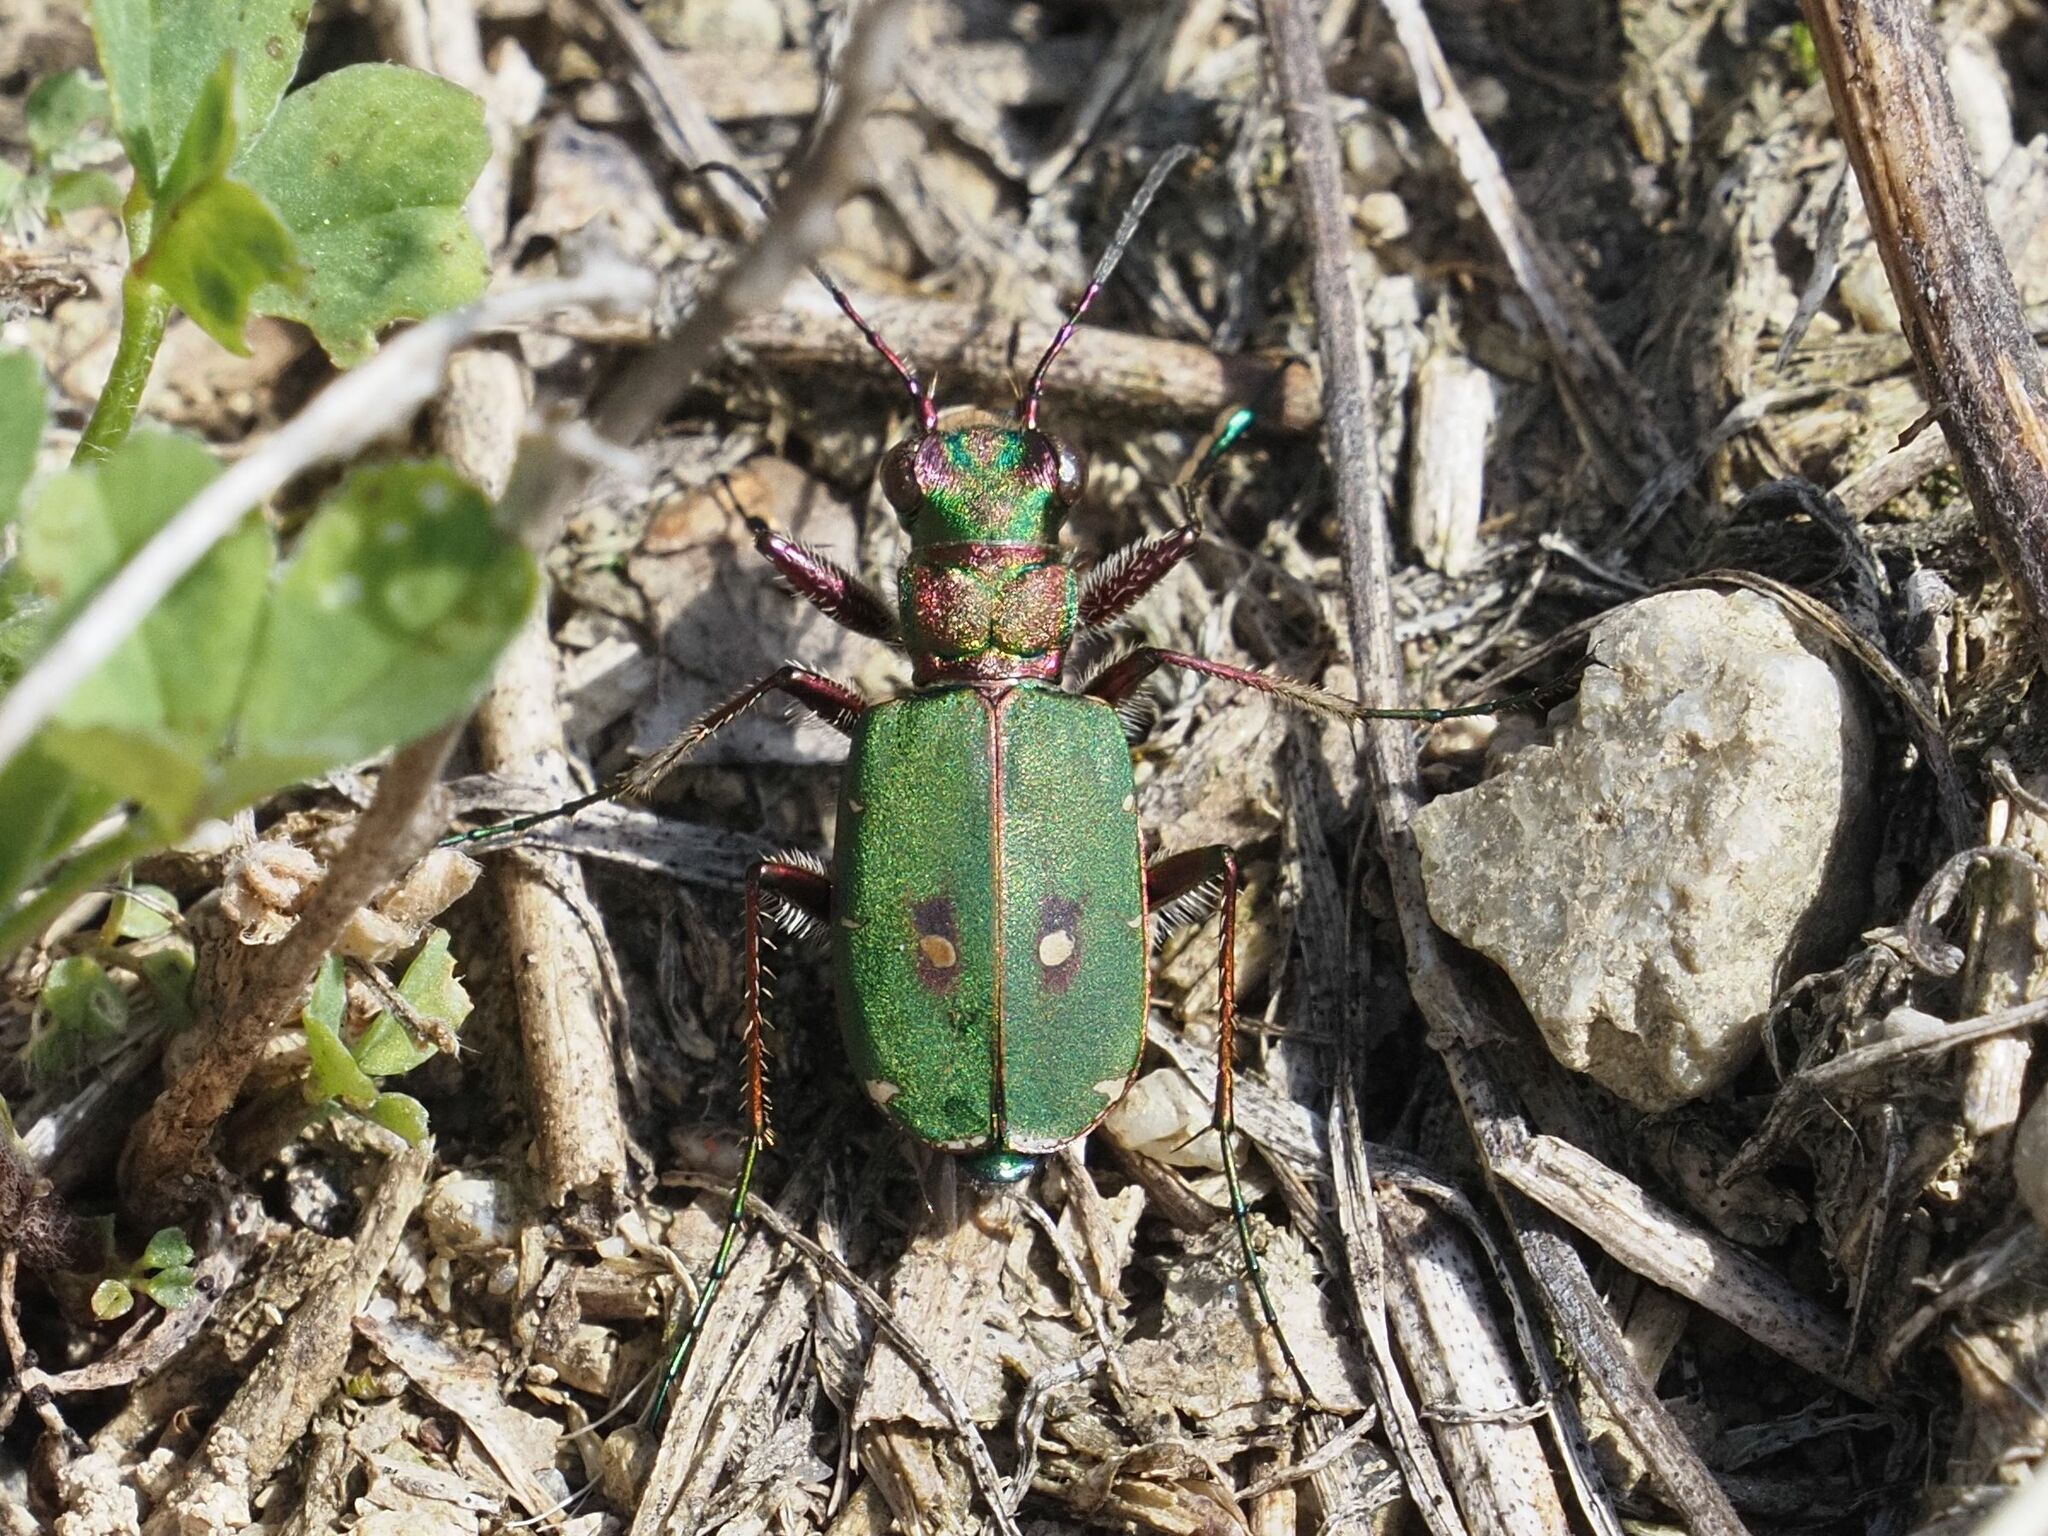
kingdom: Animalia
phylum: Arthropoda
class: Insecta
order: Coleoptera
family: Carabidae
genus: Cicindela
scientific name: Cicindela campestris
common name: Common tiger beetle
